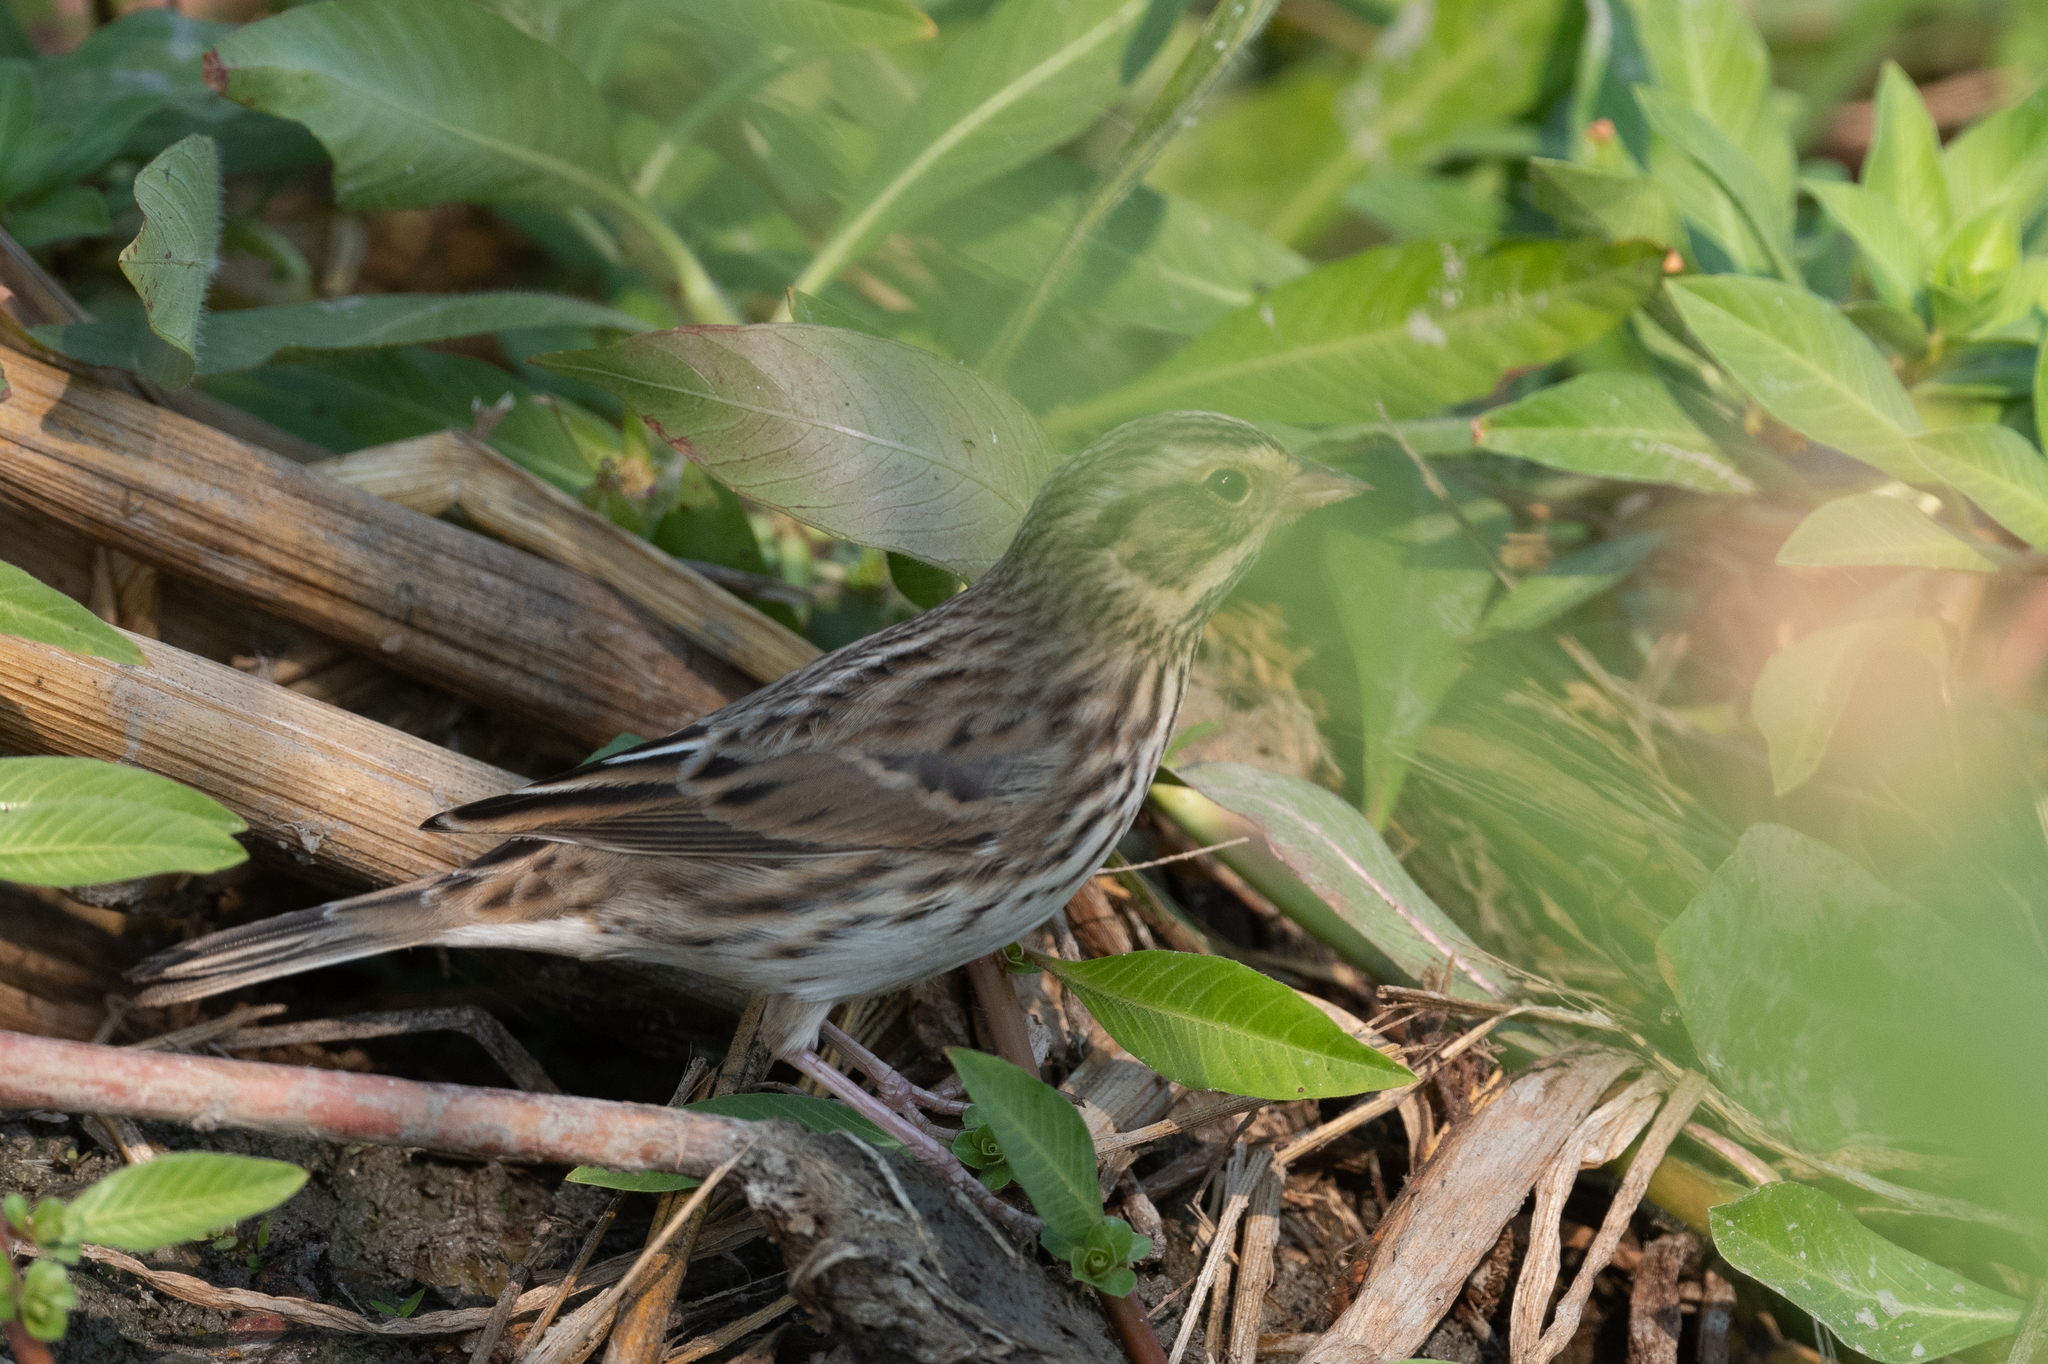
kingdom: Animalia
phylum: Chordata
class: Aves
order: Passeriformes
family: Passerellidae
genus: Passerculus
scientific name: Passerculus sandwichensis
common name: Savannah sparrow
